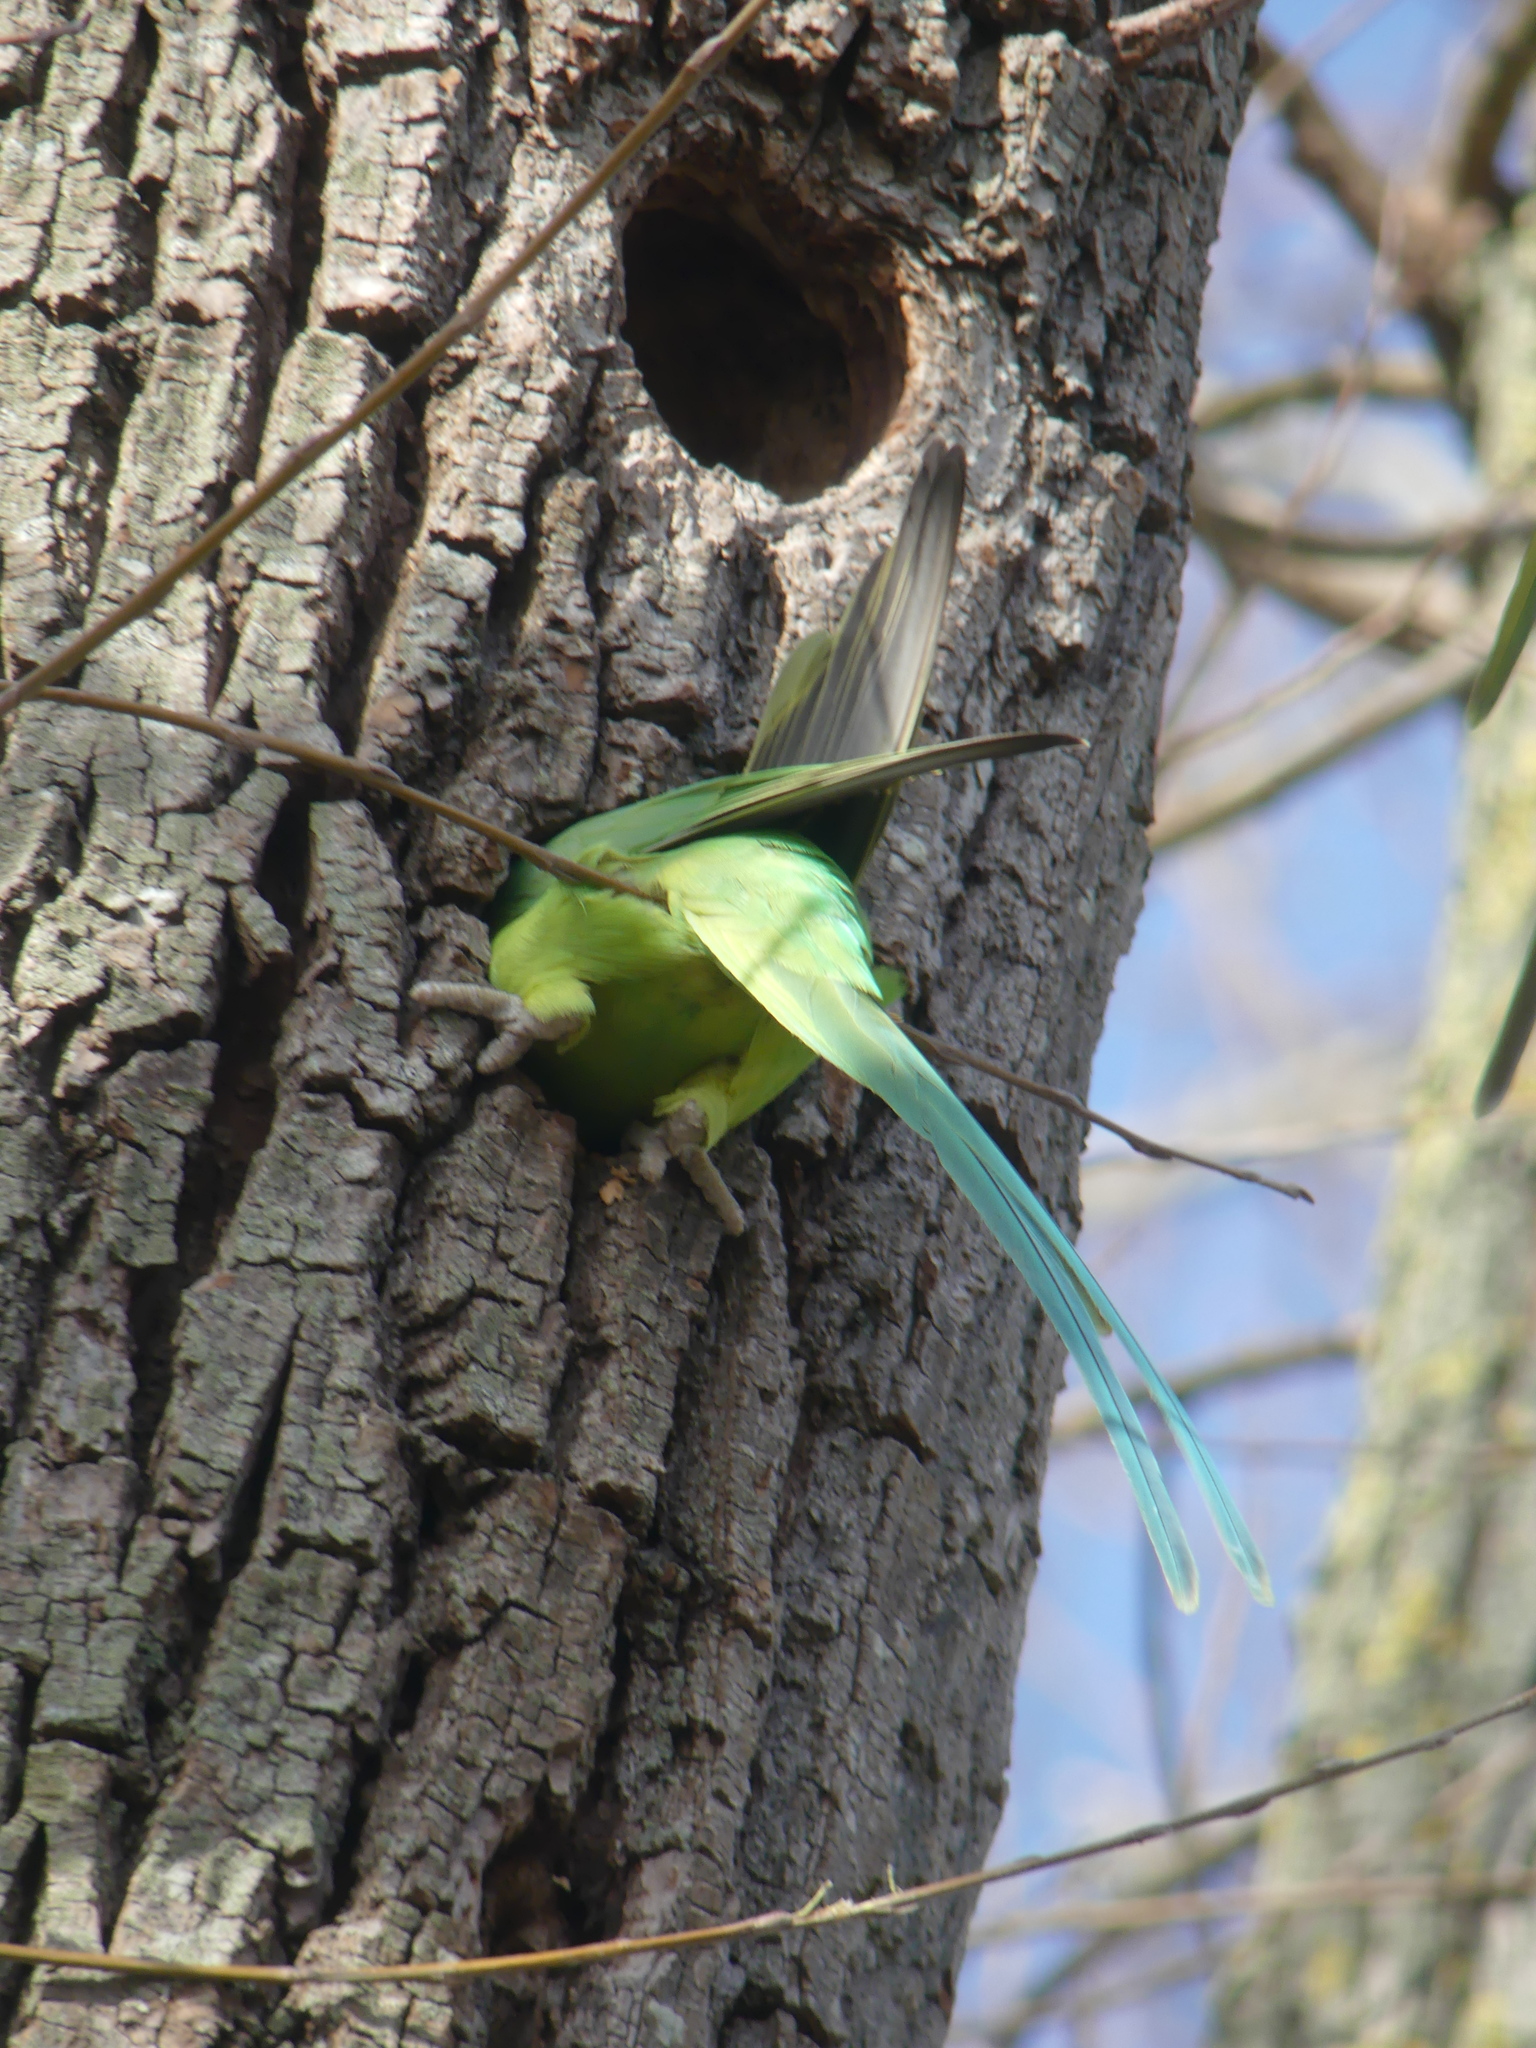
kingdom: Animalia
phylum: Chordata
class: Aves
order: Psittaciformes
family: Psittacidae
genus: Psittacula
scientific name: Psittacula krameri
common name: Rose-ringed parakeet
